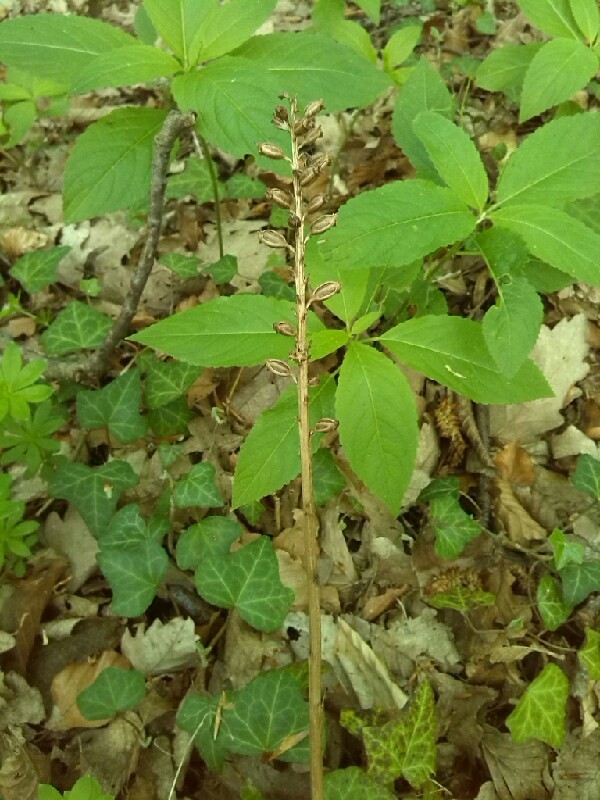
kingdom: Plantae
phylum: Tracheophyta
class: Liliopsida
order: Asparagales
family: Orchidaceae
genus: Neottia
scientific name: Neottia nidus-avis
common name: Bird's-nest orchid
